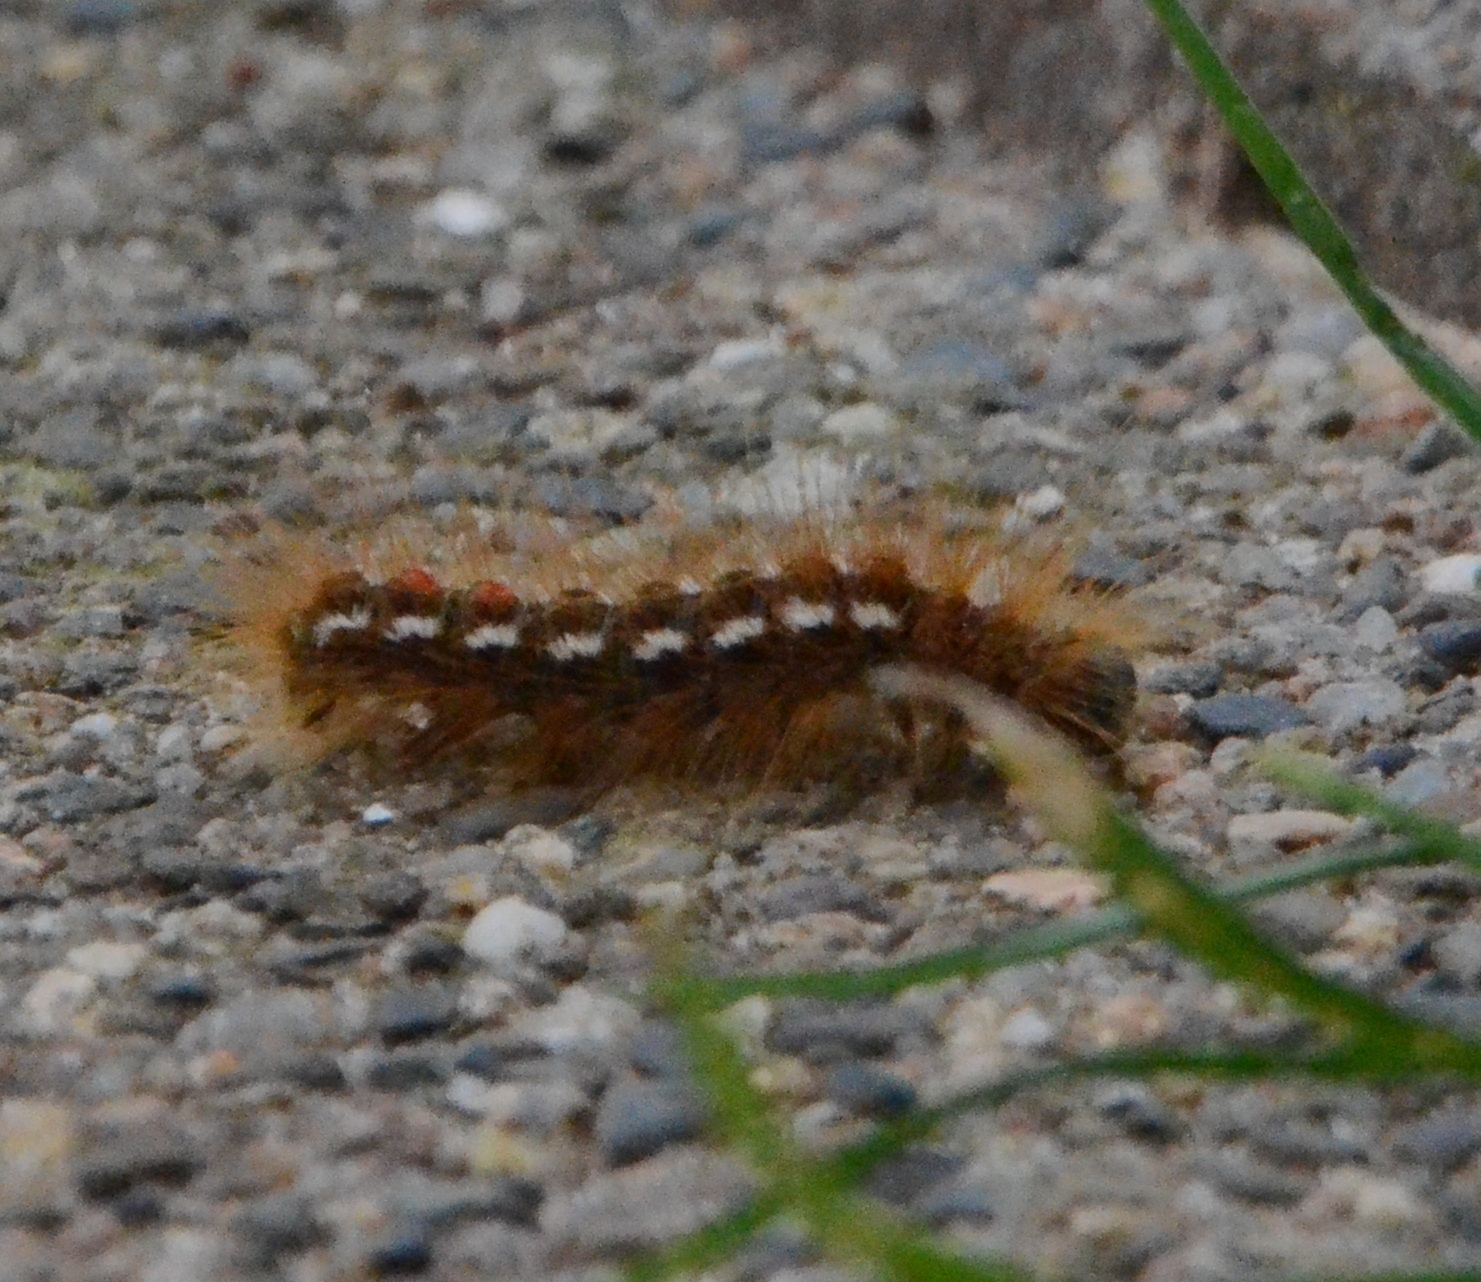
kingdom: Animalia
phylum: Arthropoda
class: Insecta
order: Lepidoptera
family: Erebidae
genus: Euproctis
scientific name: Euproctis chrysorrhoea
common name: Brown-tail
